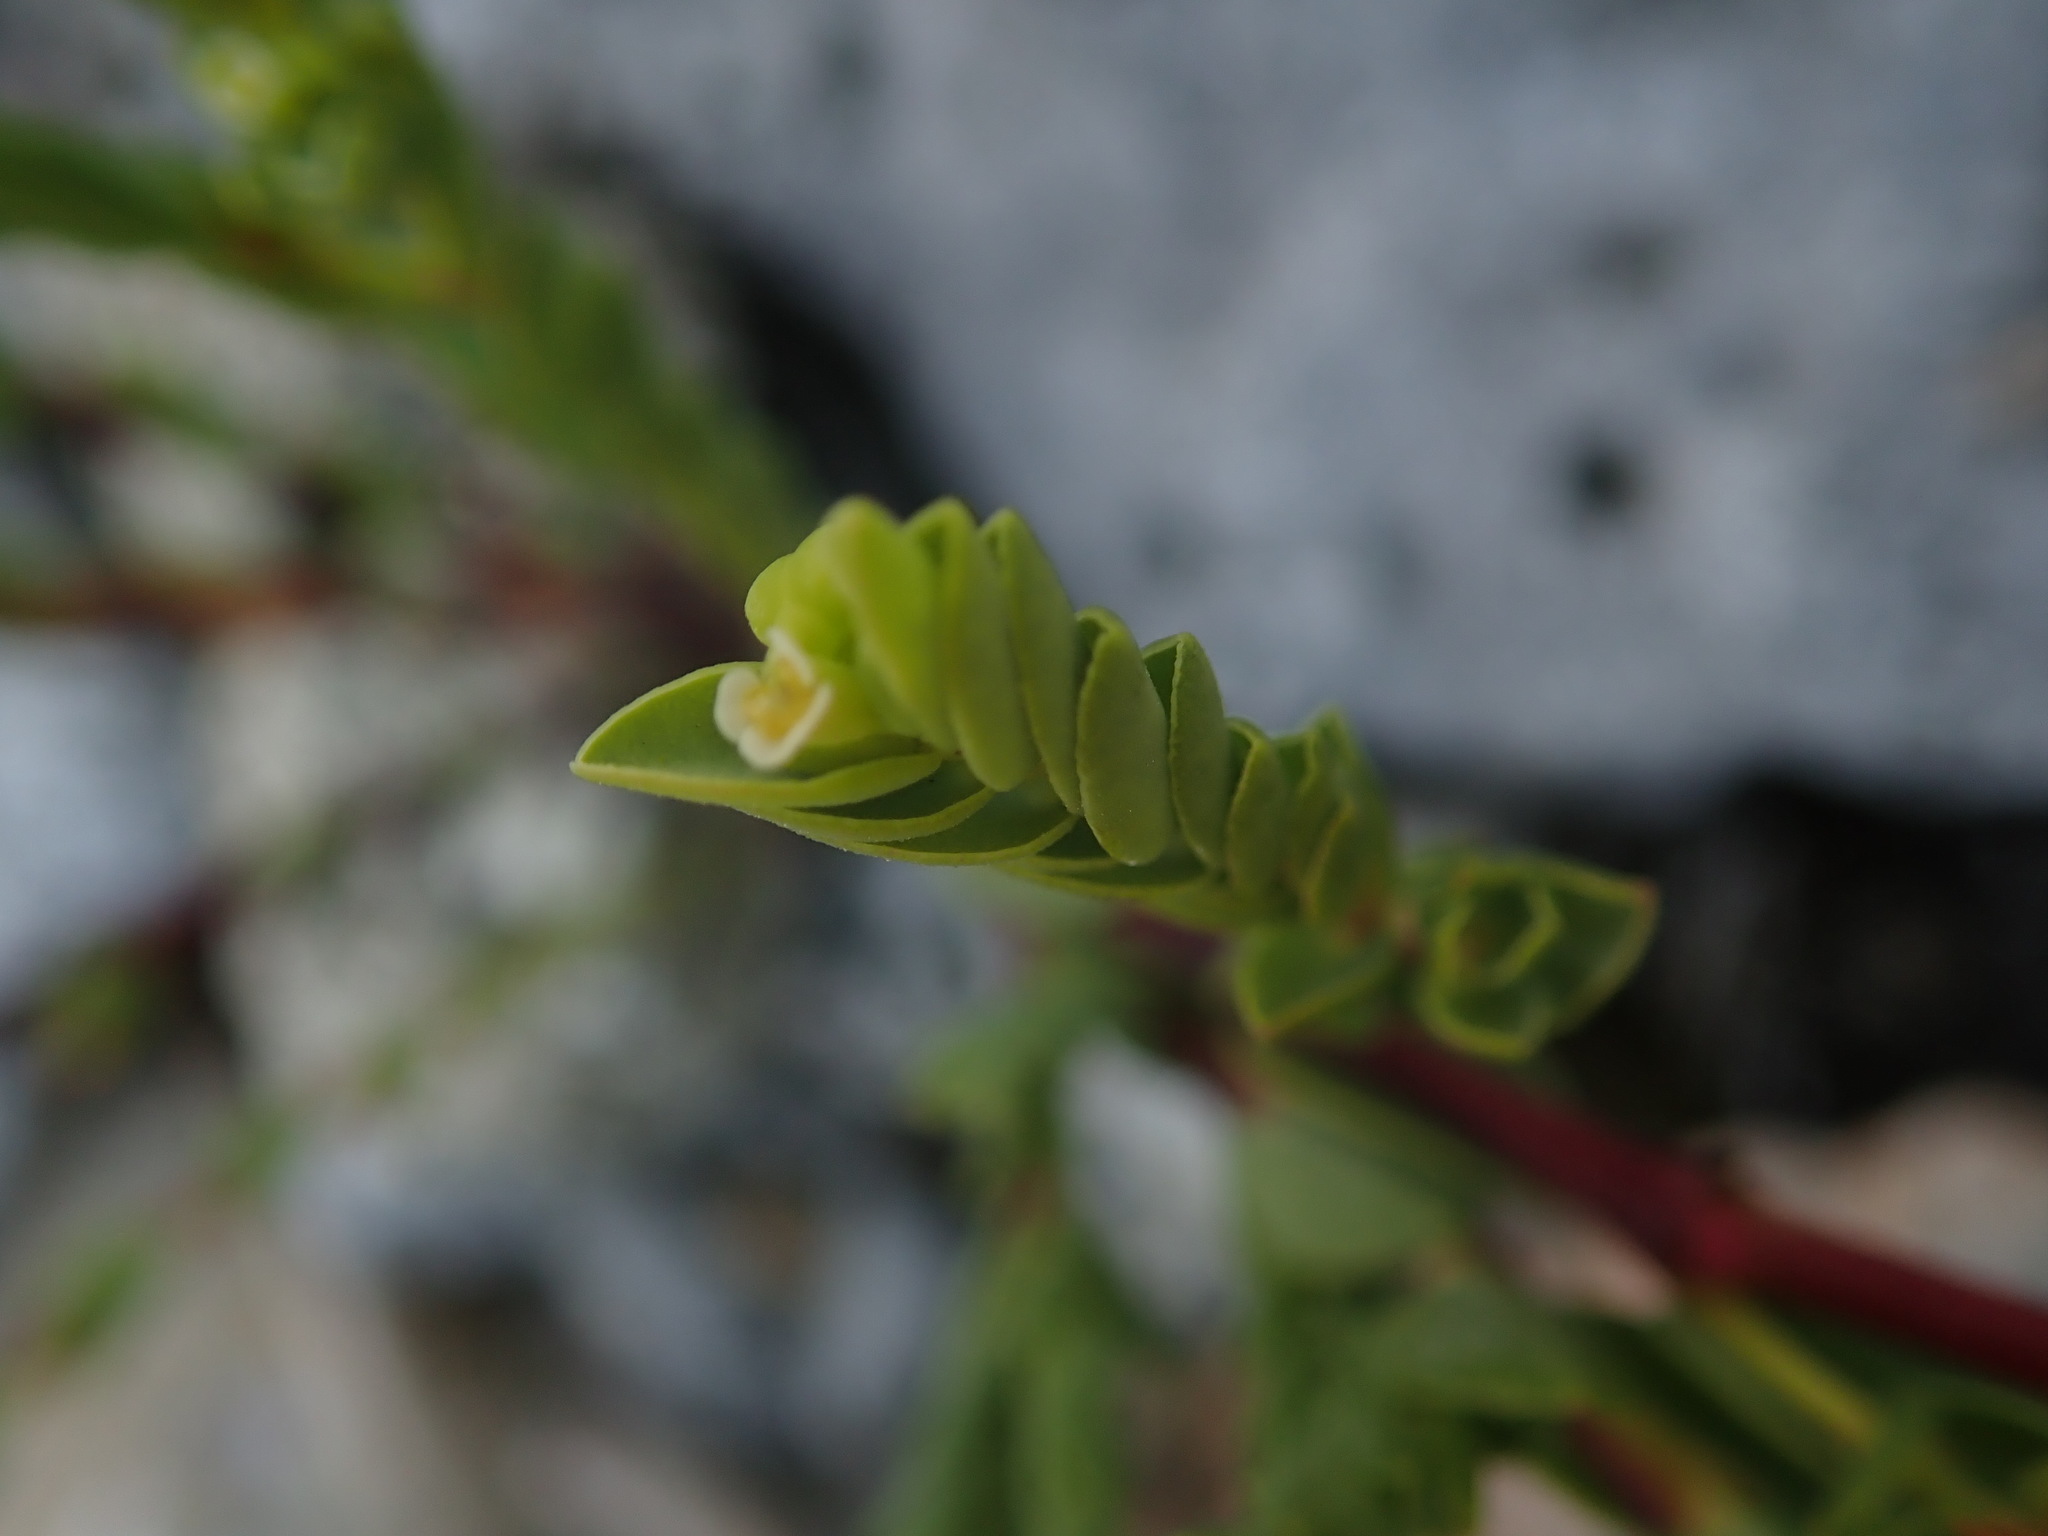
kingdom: Plantae
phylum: Tracheophyta
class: Magnoliopsida
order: Malpighiales
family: Euphorbiaceae
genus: Euphorbia
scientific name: Euphorbia mesembryanthemifolia
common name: Coastal beach sandmat
